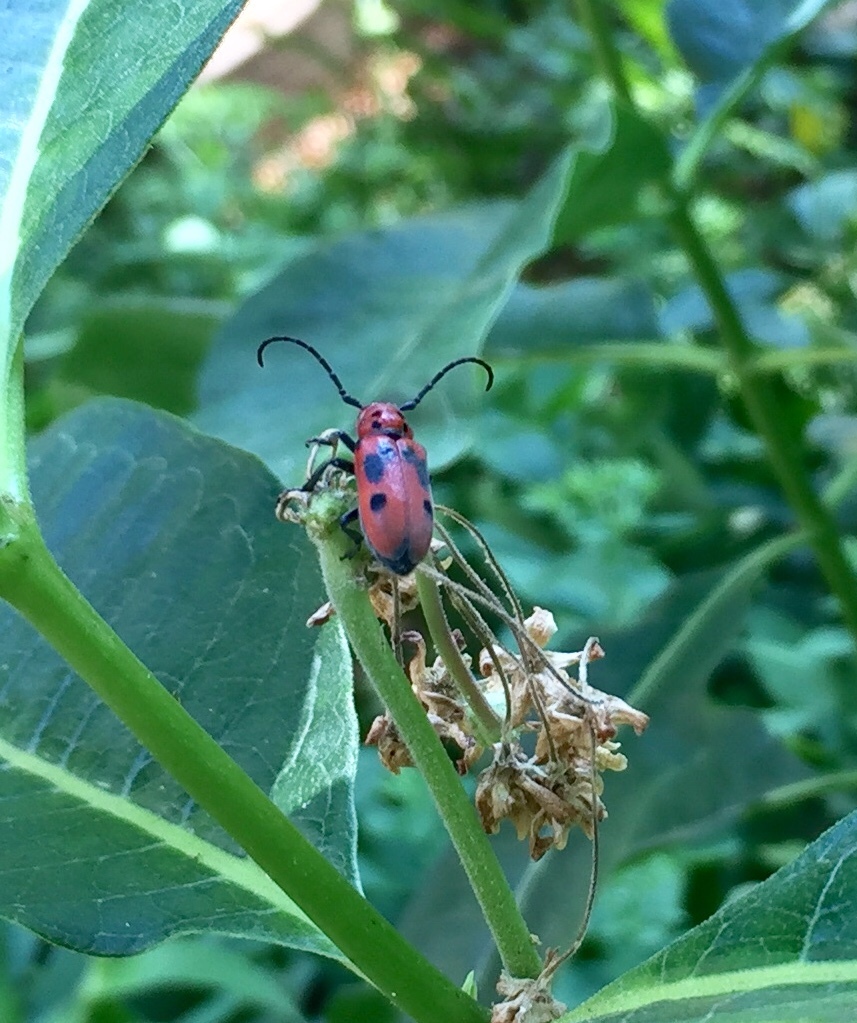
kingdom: Animalia
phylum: Arthropoda
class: Insecta
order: Coleoptera
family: Cerambycidae
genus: Tetraopes
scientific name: Tetraopes tetrophthalmus
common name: Red milkweed beetle
